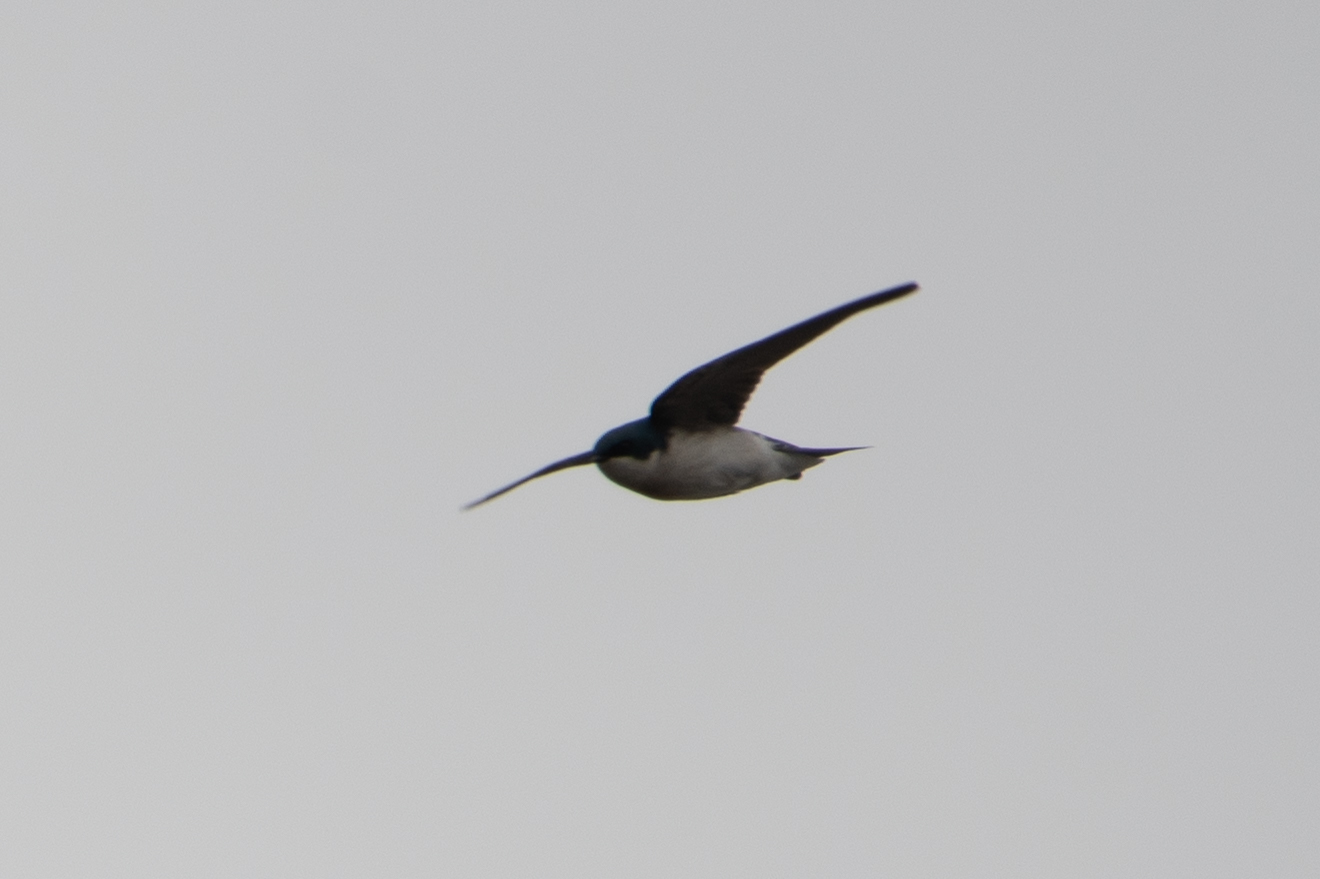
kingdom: Animalia
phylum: Chordata
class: Aves
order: Passeriformes
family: Hirundinidae
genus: Tachycineta
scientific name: Tachycineta bicolor
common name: Tree swallow
